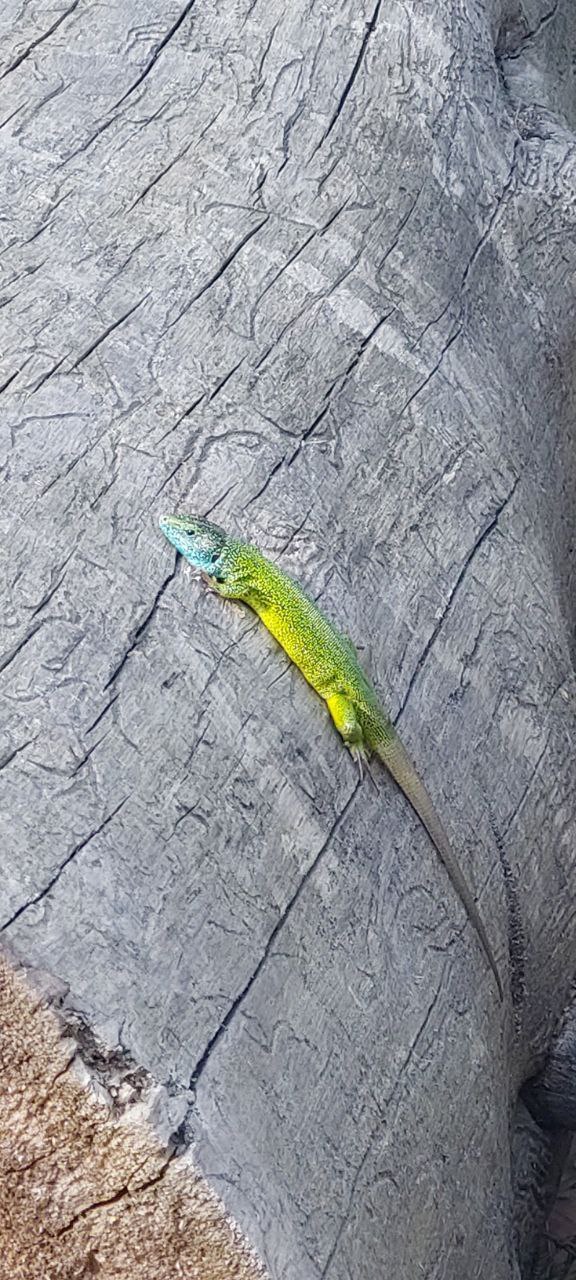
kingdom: Animalia
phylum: Chordata
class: Squamata
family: Lacertidae
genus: Lacerta
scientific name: Lacerta viridis
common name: European green lizard
